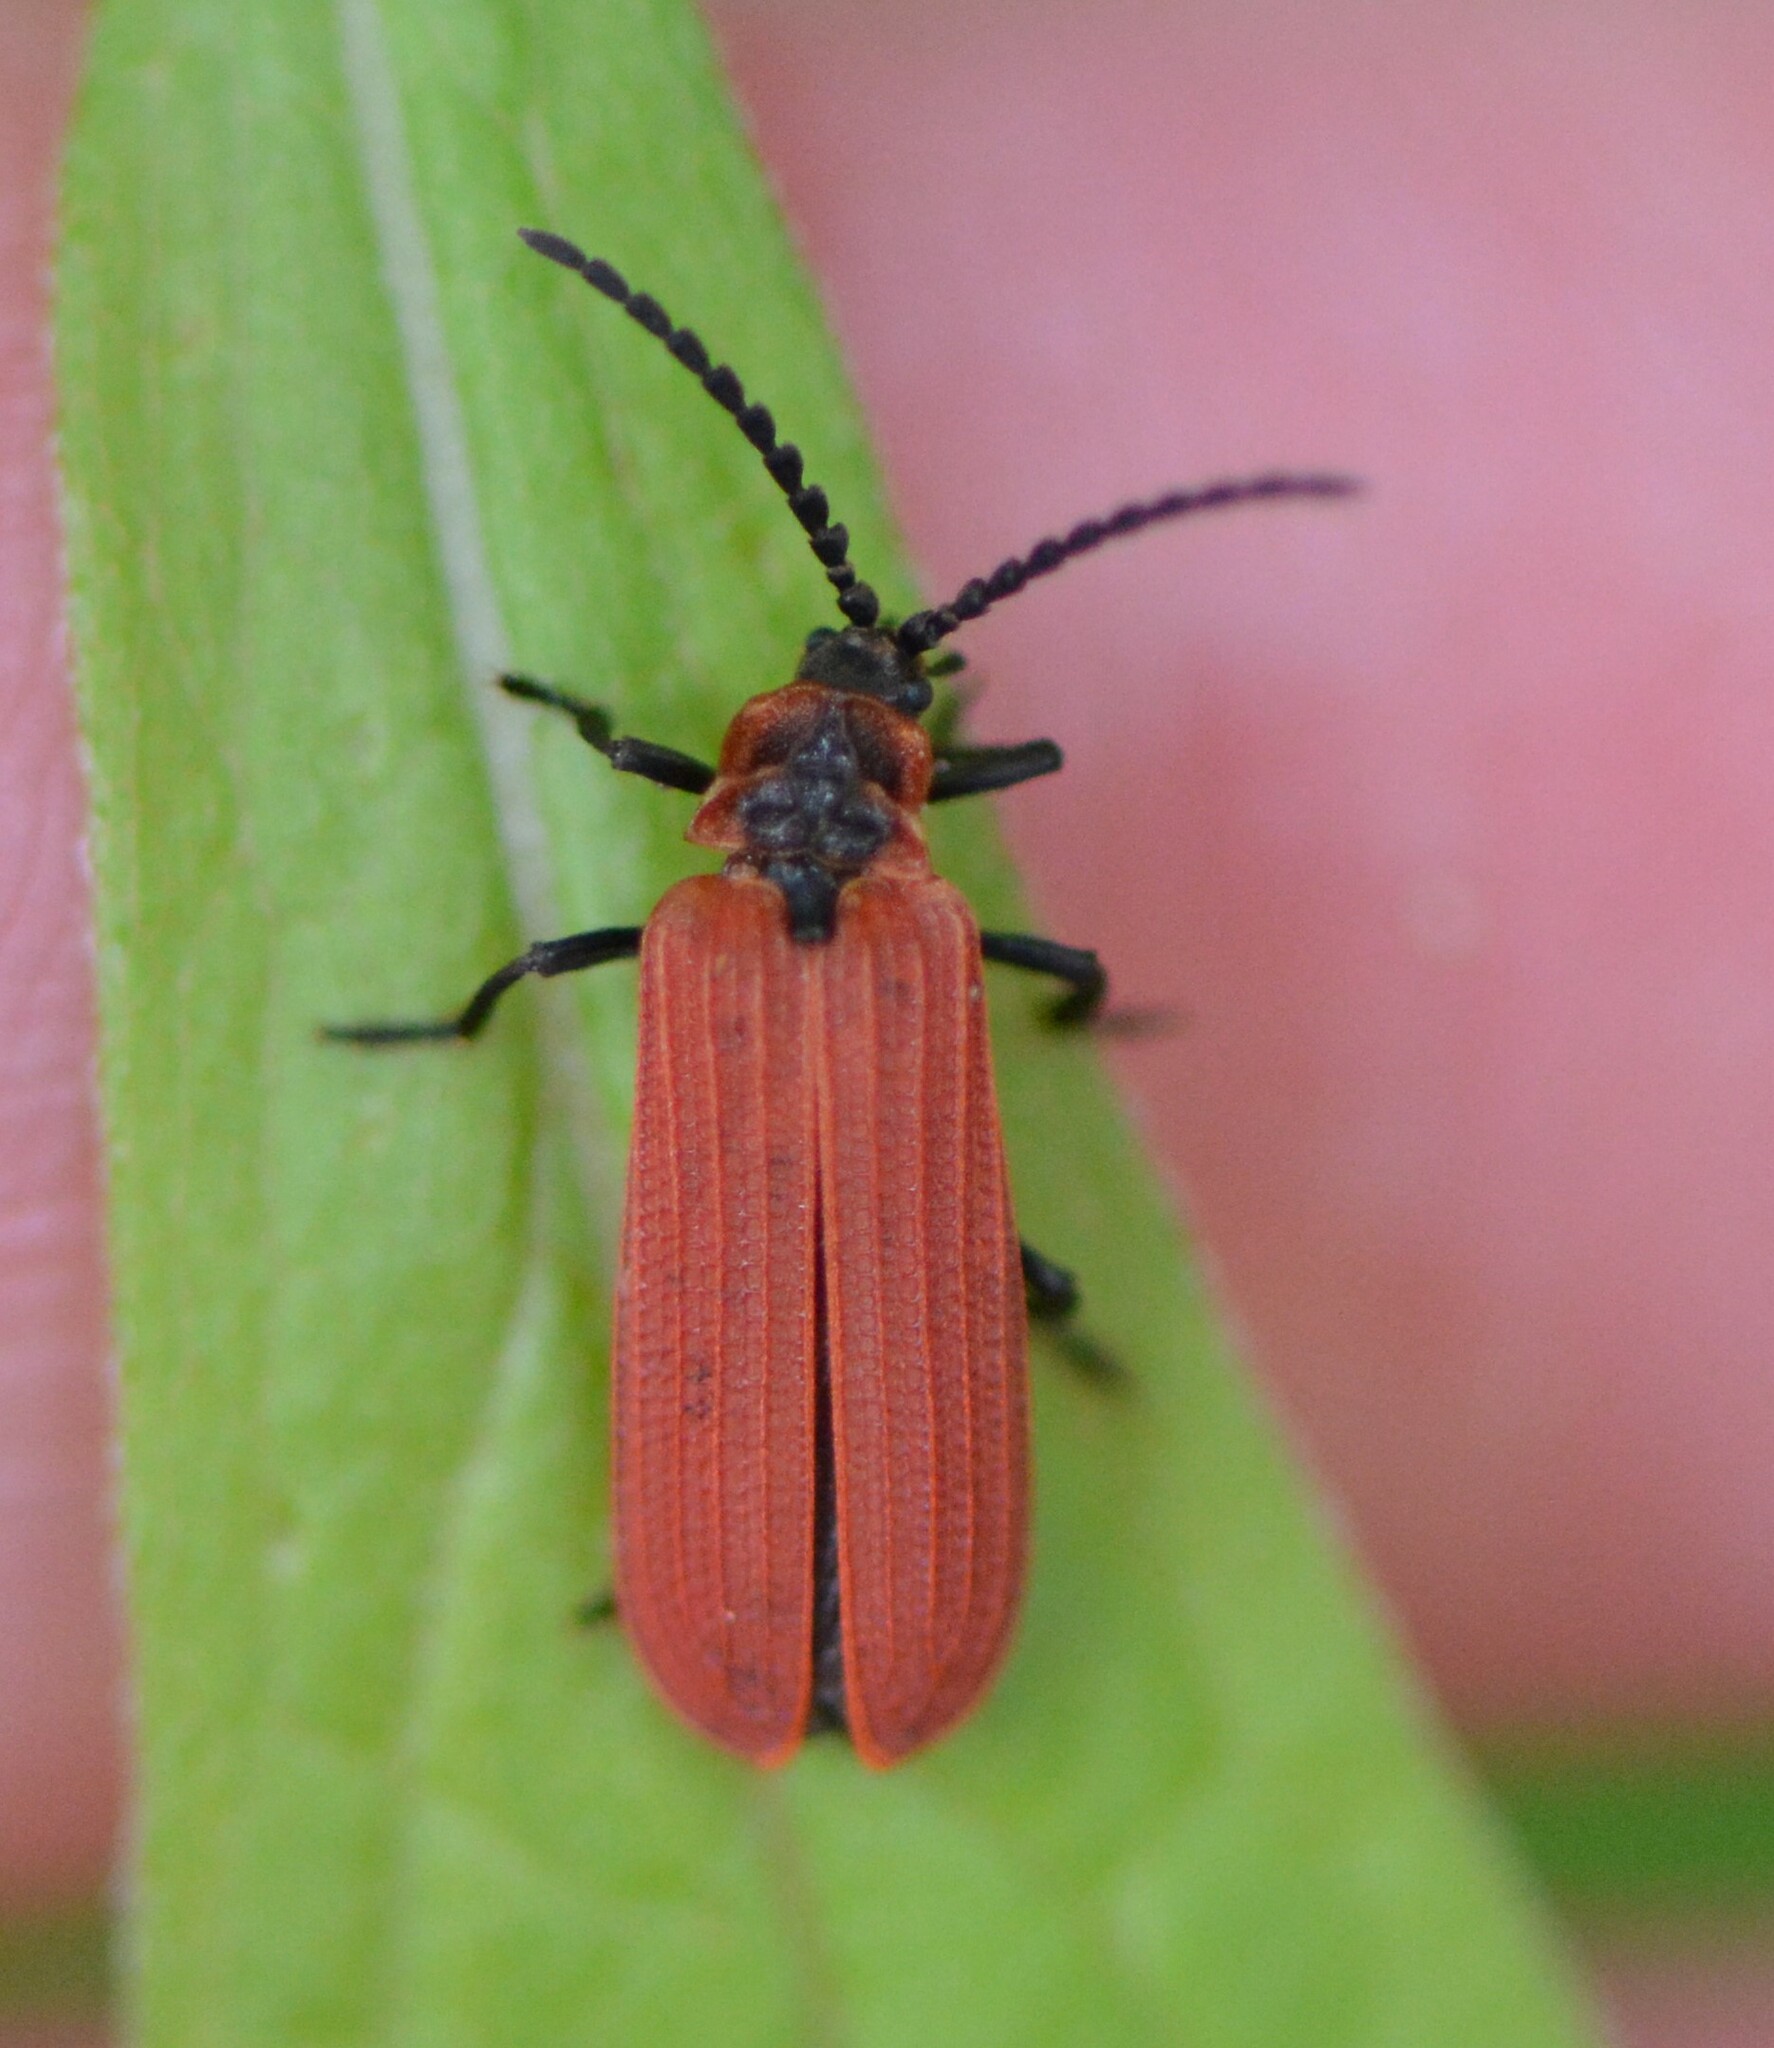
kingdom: Animalia
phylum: Arthropoda
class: Insecta
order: Coleoptera
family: Lycidae
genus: Dictyoptera
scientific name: Dictyoptera aurora
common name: Golden net-winged beetle
